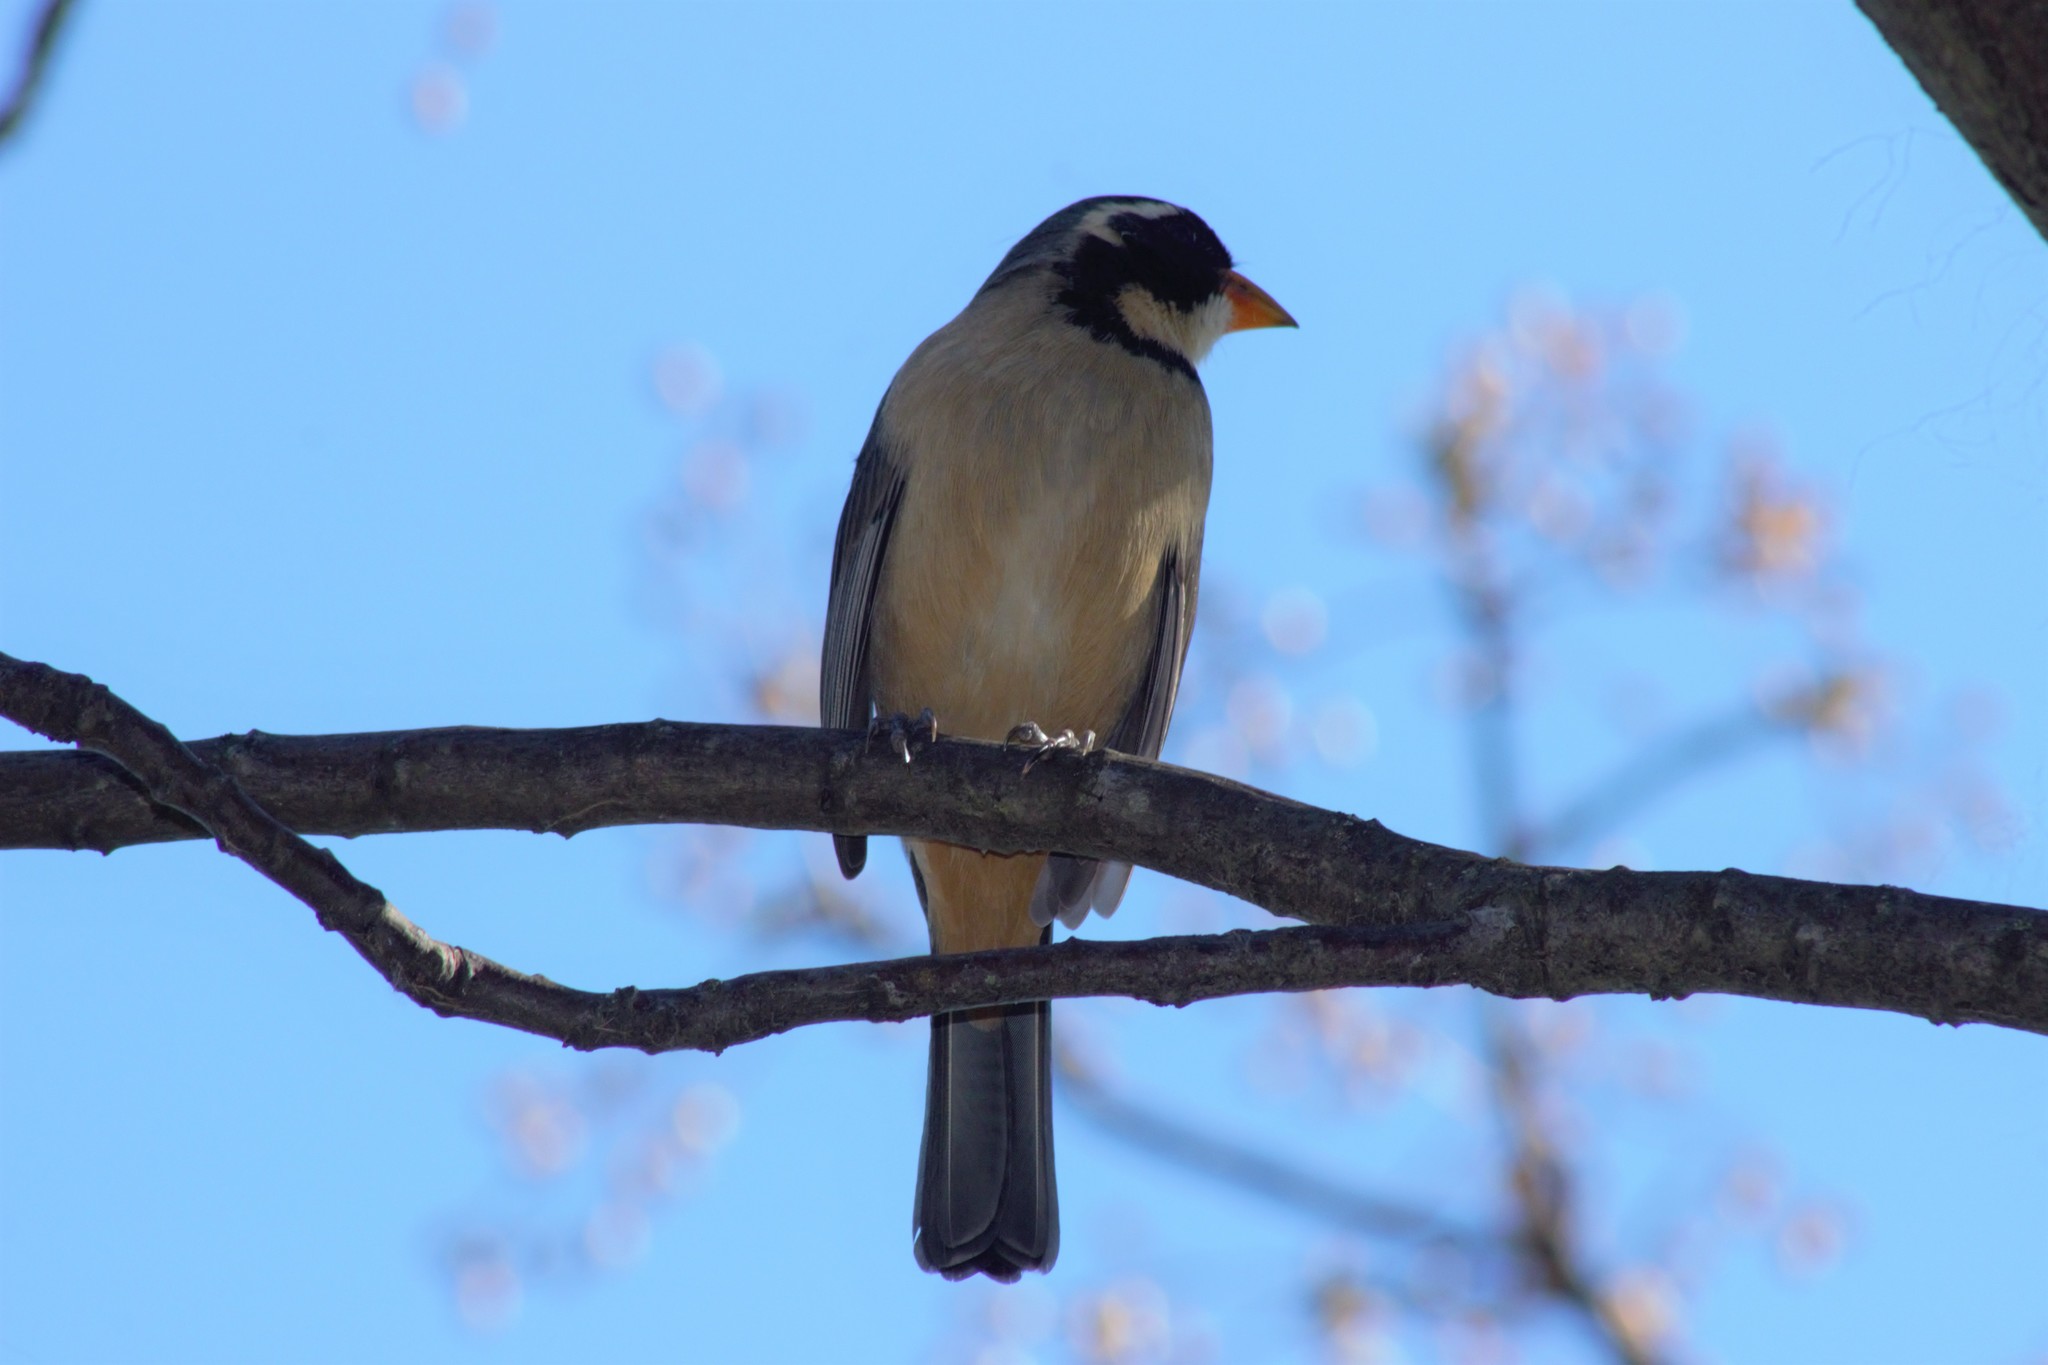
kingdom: Animalia
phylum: Chordata
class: Aves
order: Passeriformes
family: Thraupidae
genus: Saltator
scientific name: Saltator aurantiirostris
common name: Golden-billed saltator
